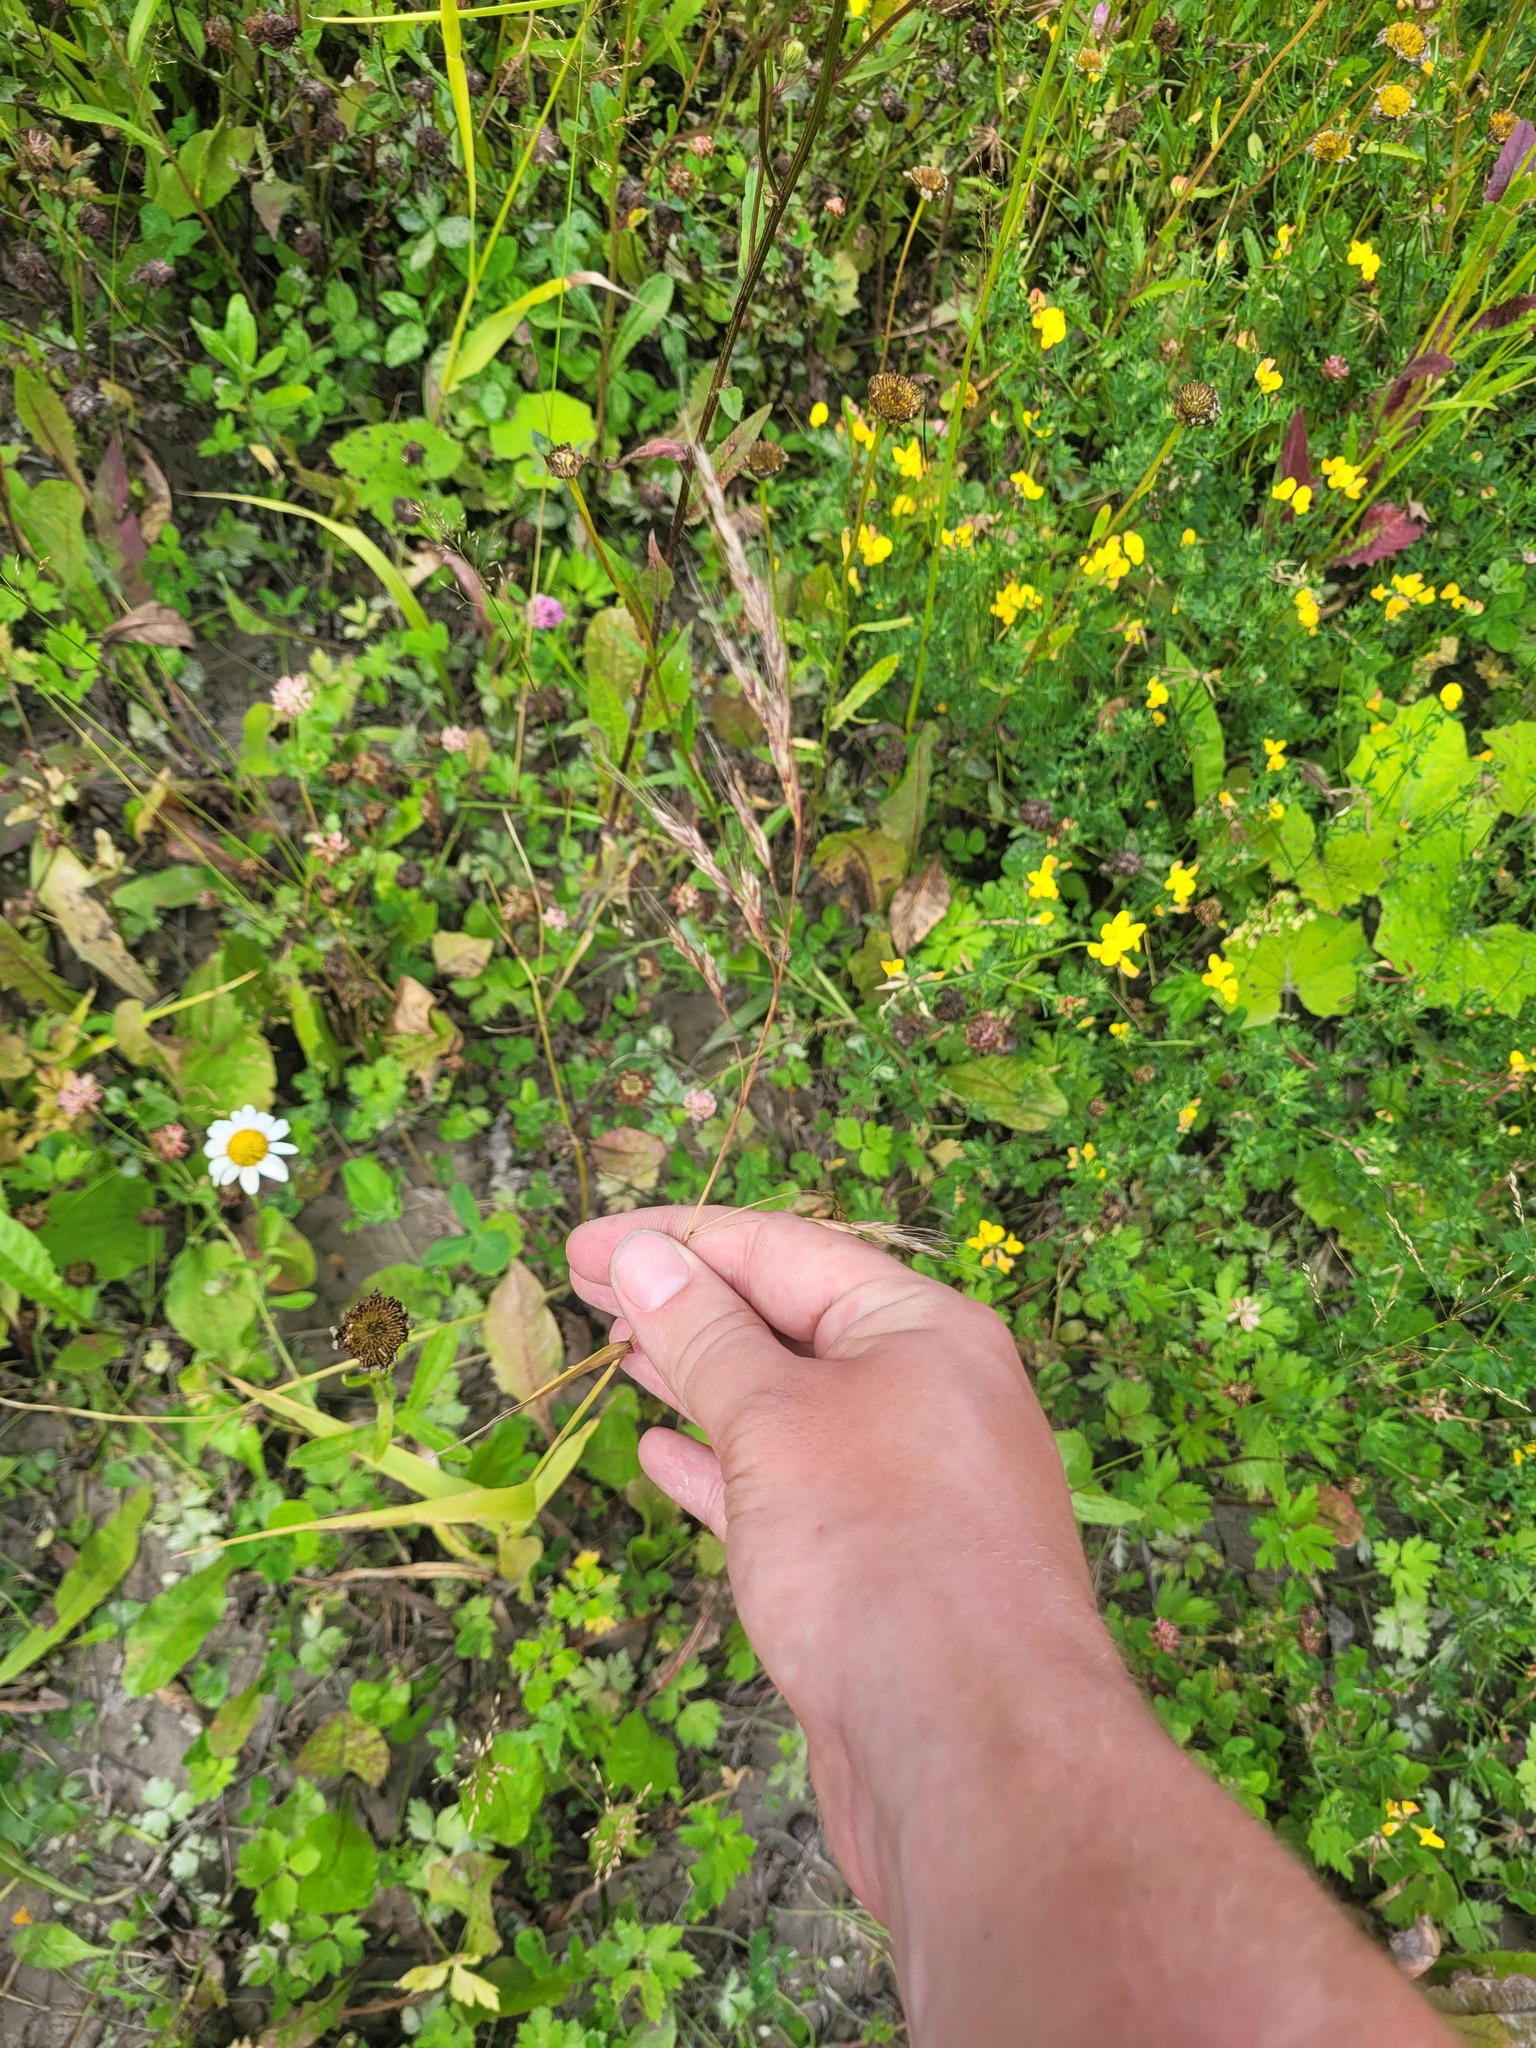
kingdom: Plantae
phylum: Tracheophyta
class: Liliopsida
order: Poales
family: Poaceae
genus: Lolium
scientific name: Lolium giganteum
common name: Giant fescue
